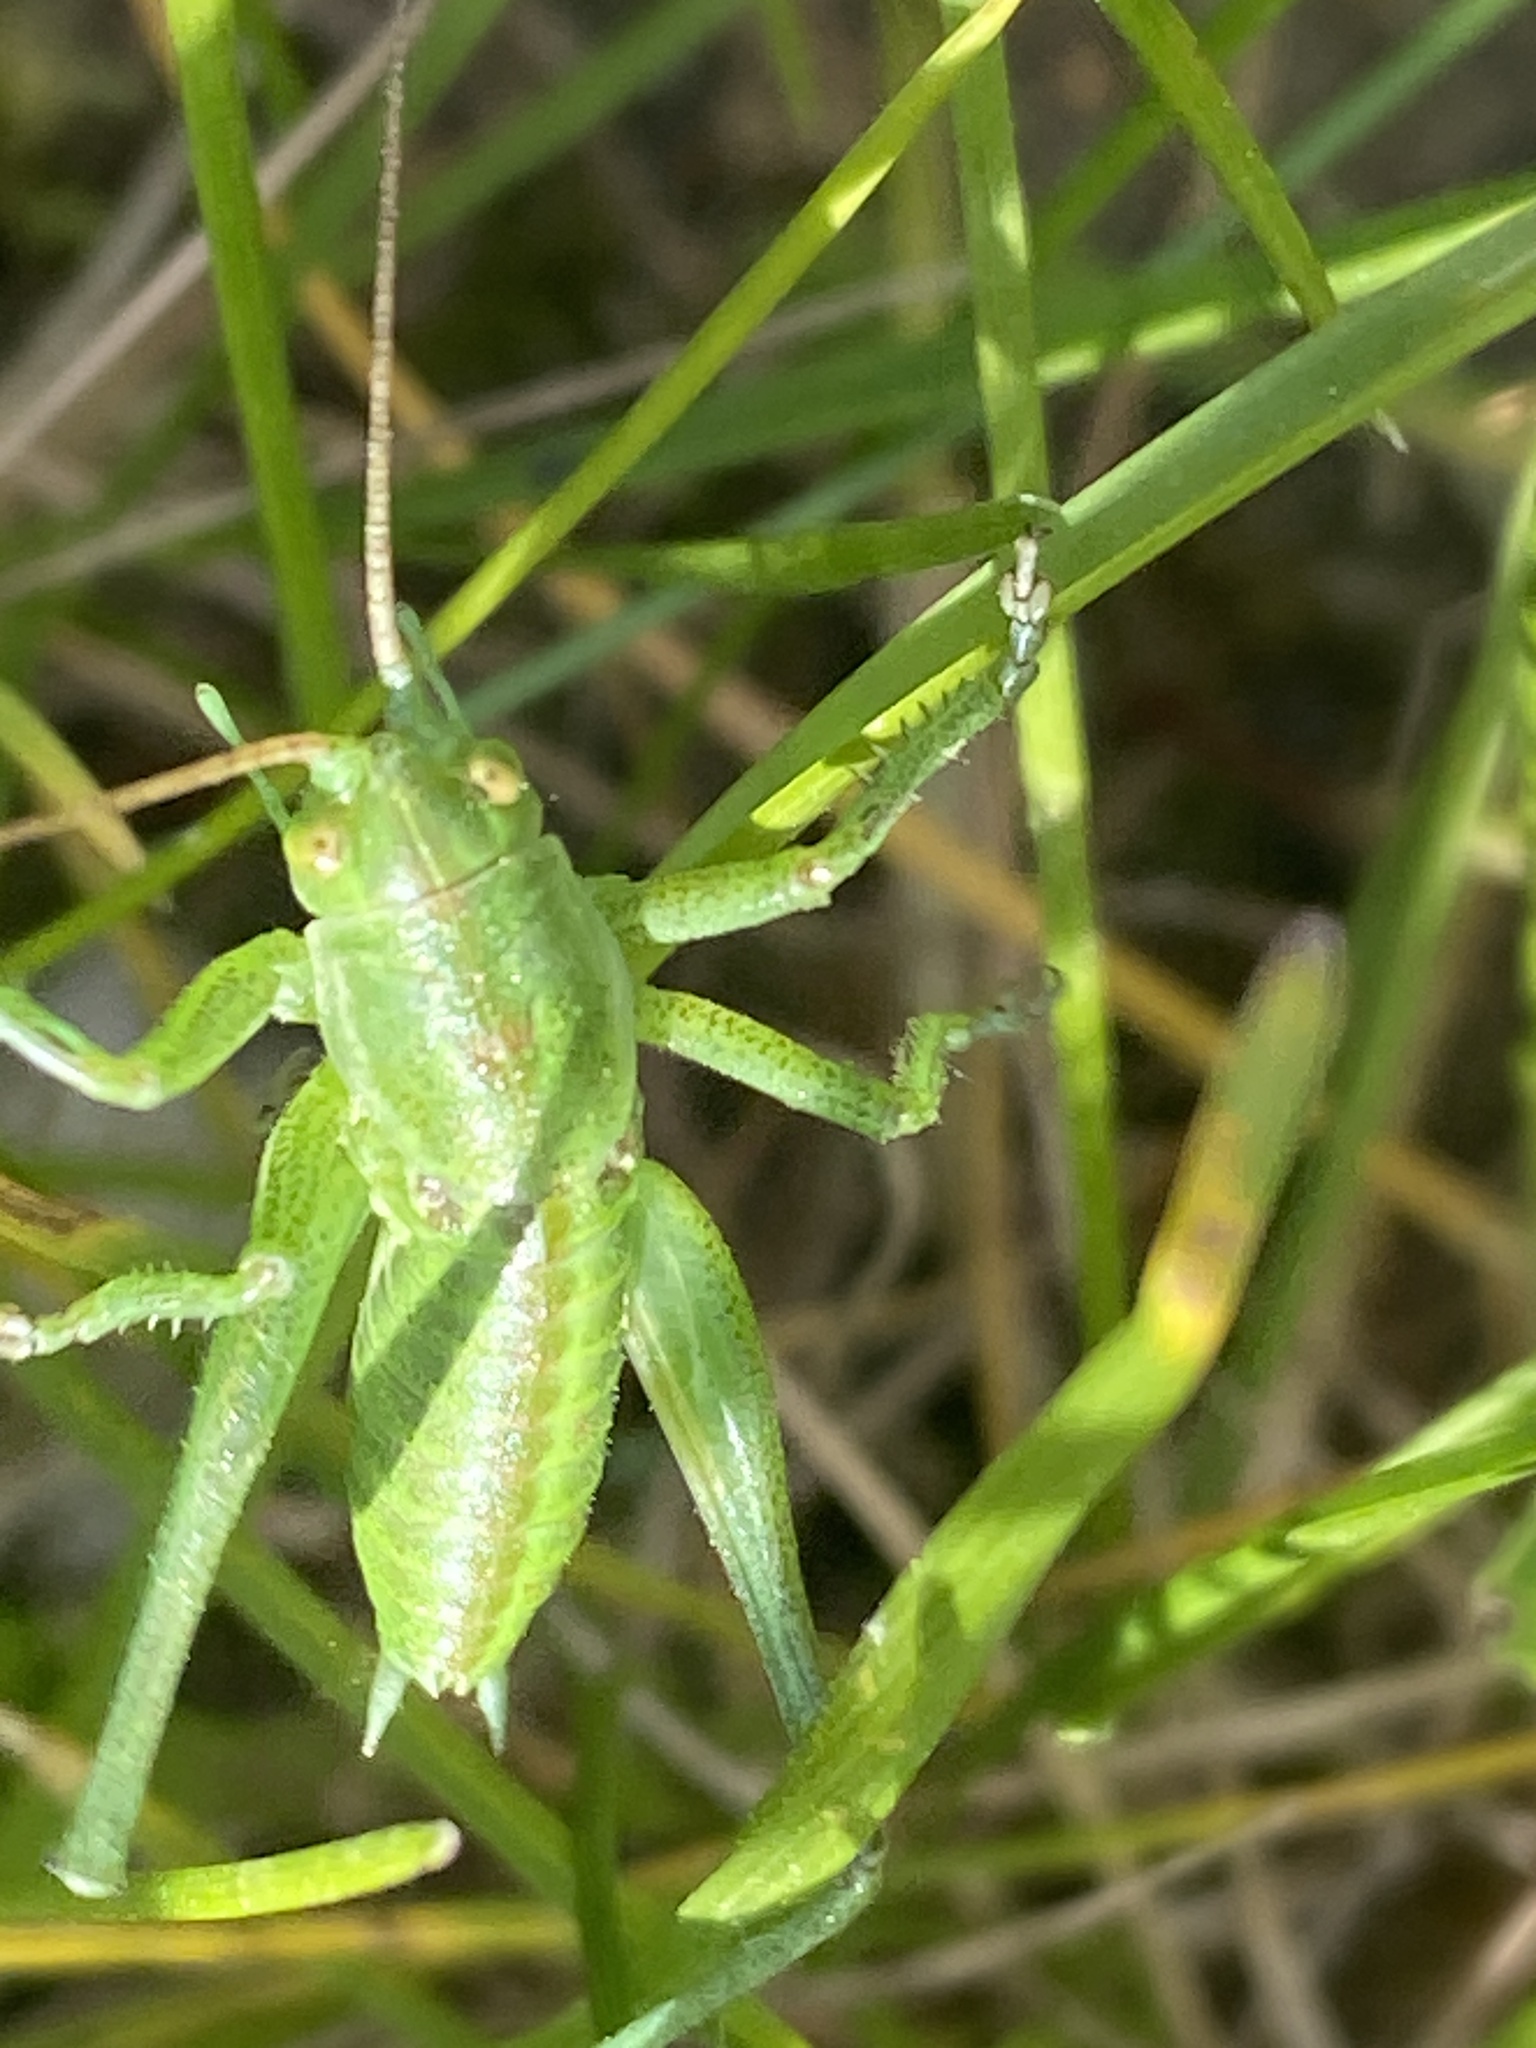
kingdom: Animalia
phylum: Arthropoda
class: Insecta
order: Orthoptera
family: Tettigoniidae
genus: Tettigonia
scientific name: Tettigonia viridissima
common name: Great green bush-cricket
